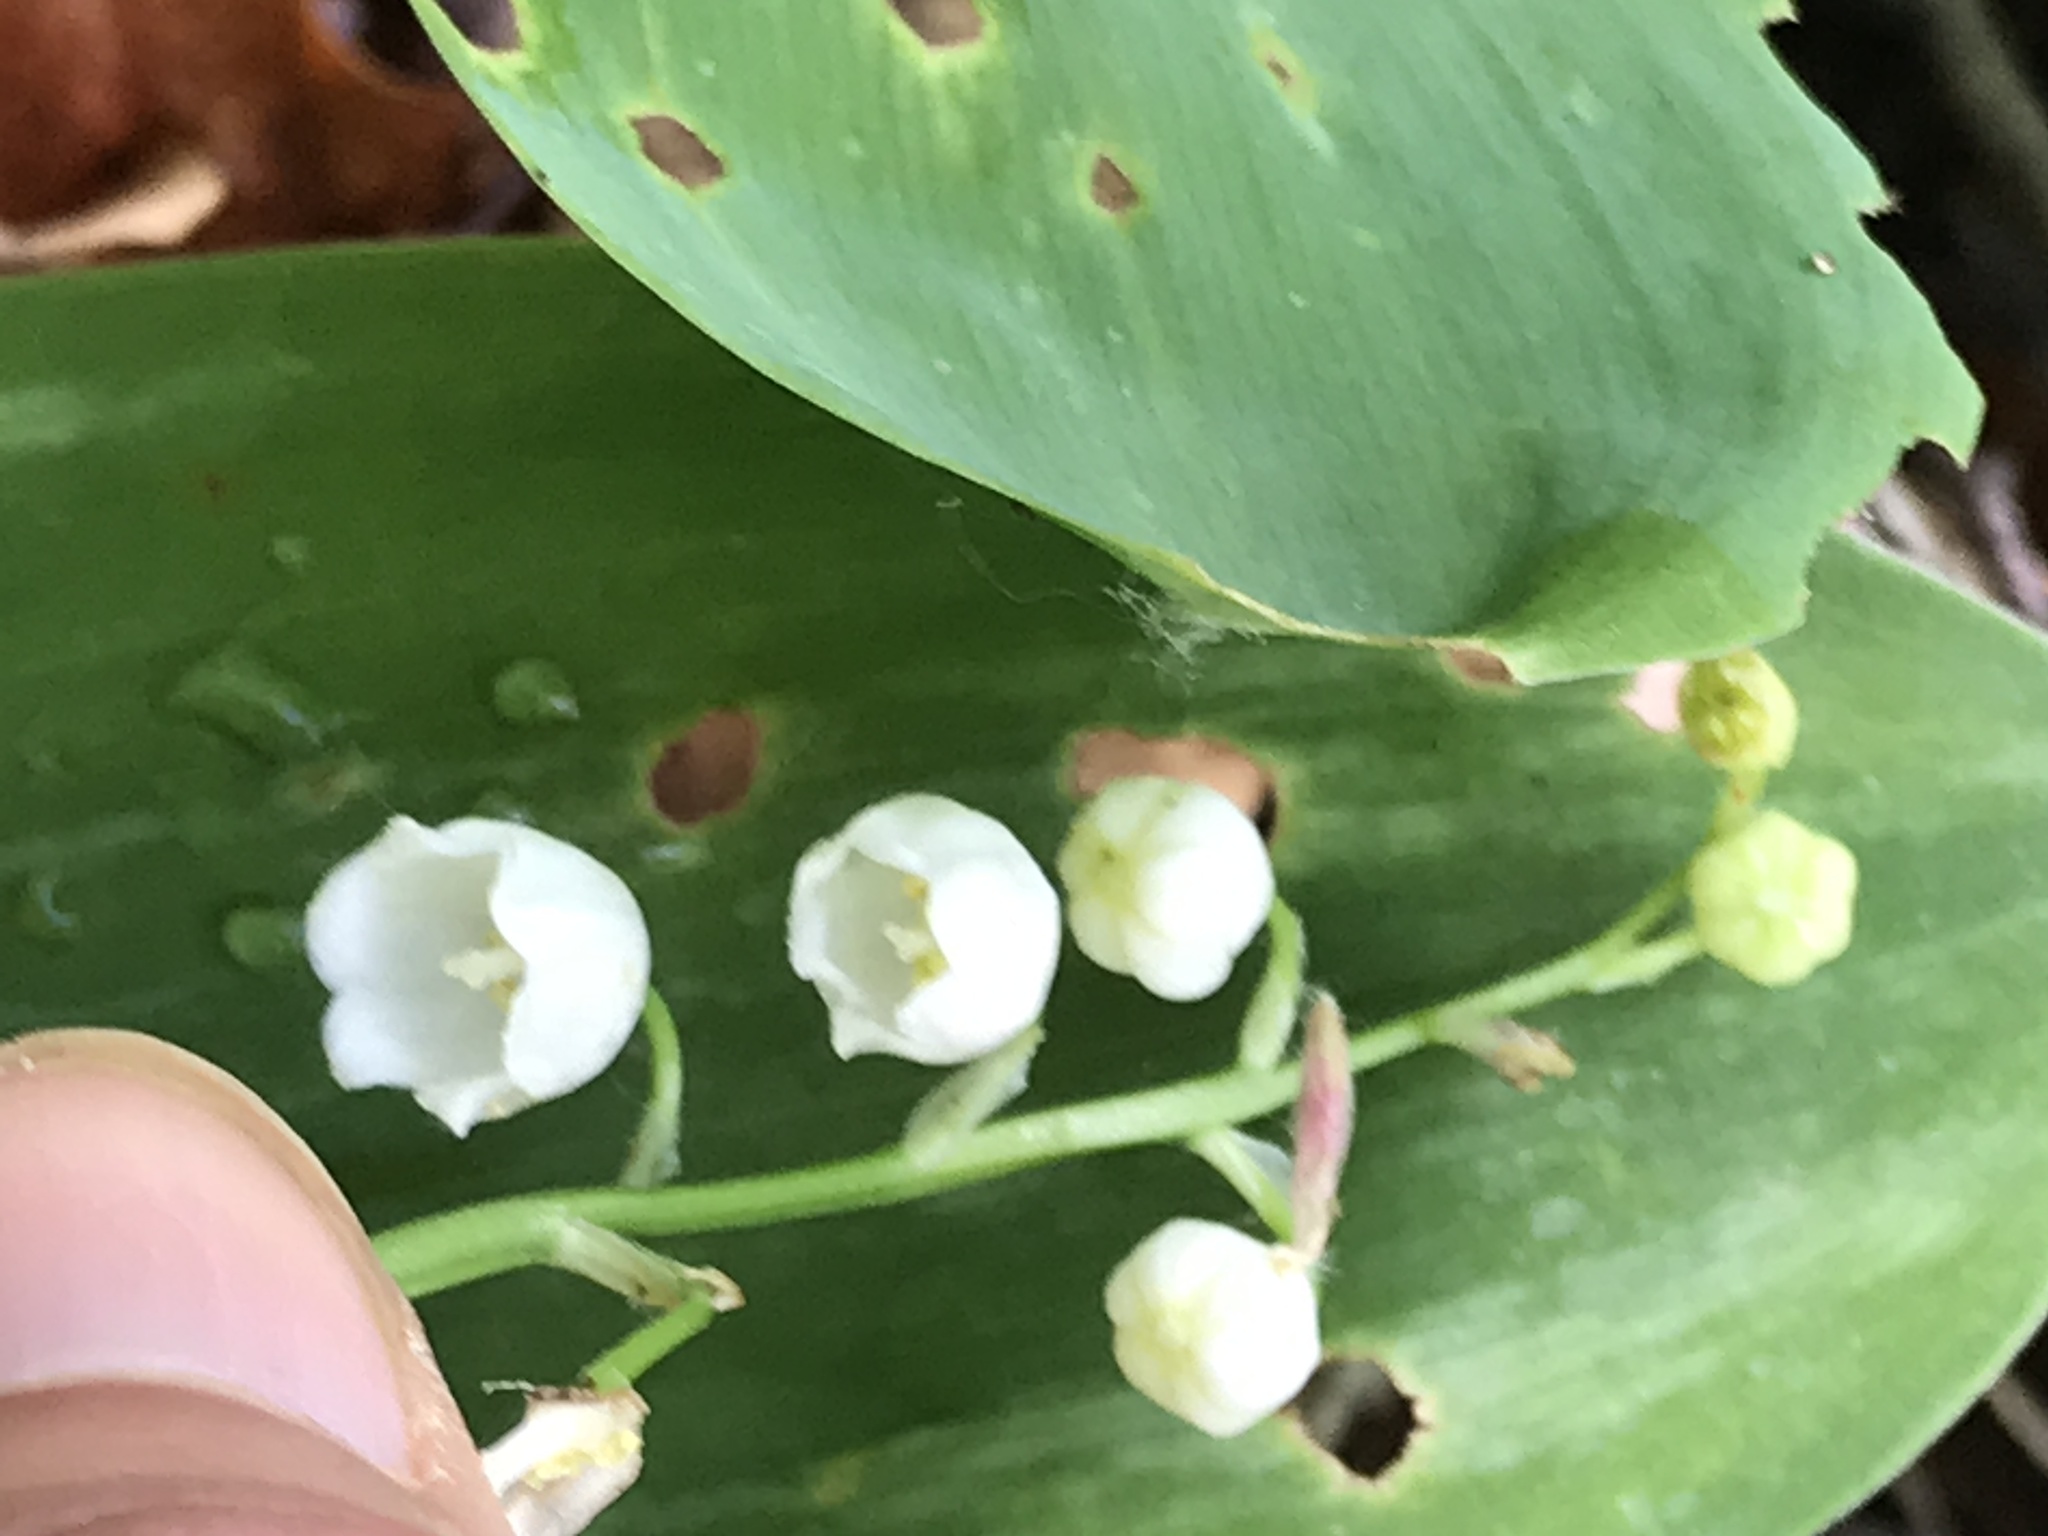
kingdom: Plantae
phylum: Tracheophyta
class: Liliopsida
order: Asparagales
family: Asparagaceae
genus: Convallaria
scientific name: Convallaria majalis
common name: Lily-of-the-valley
